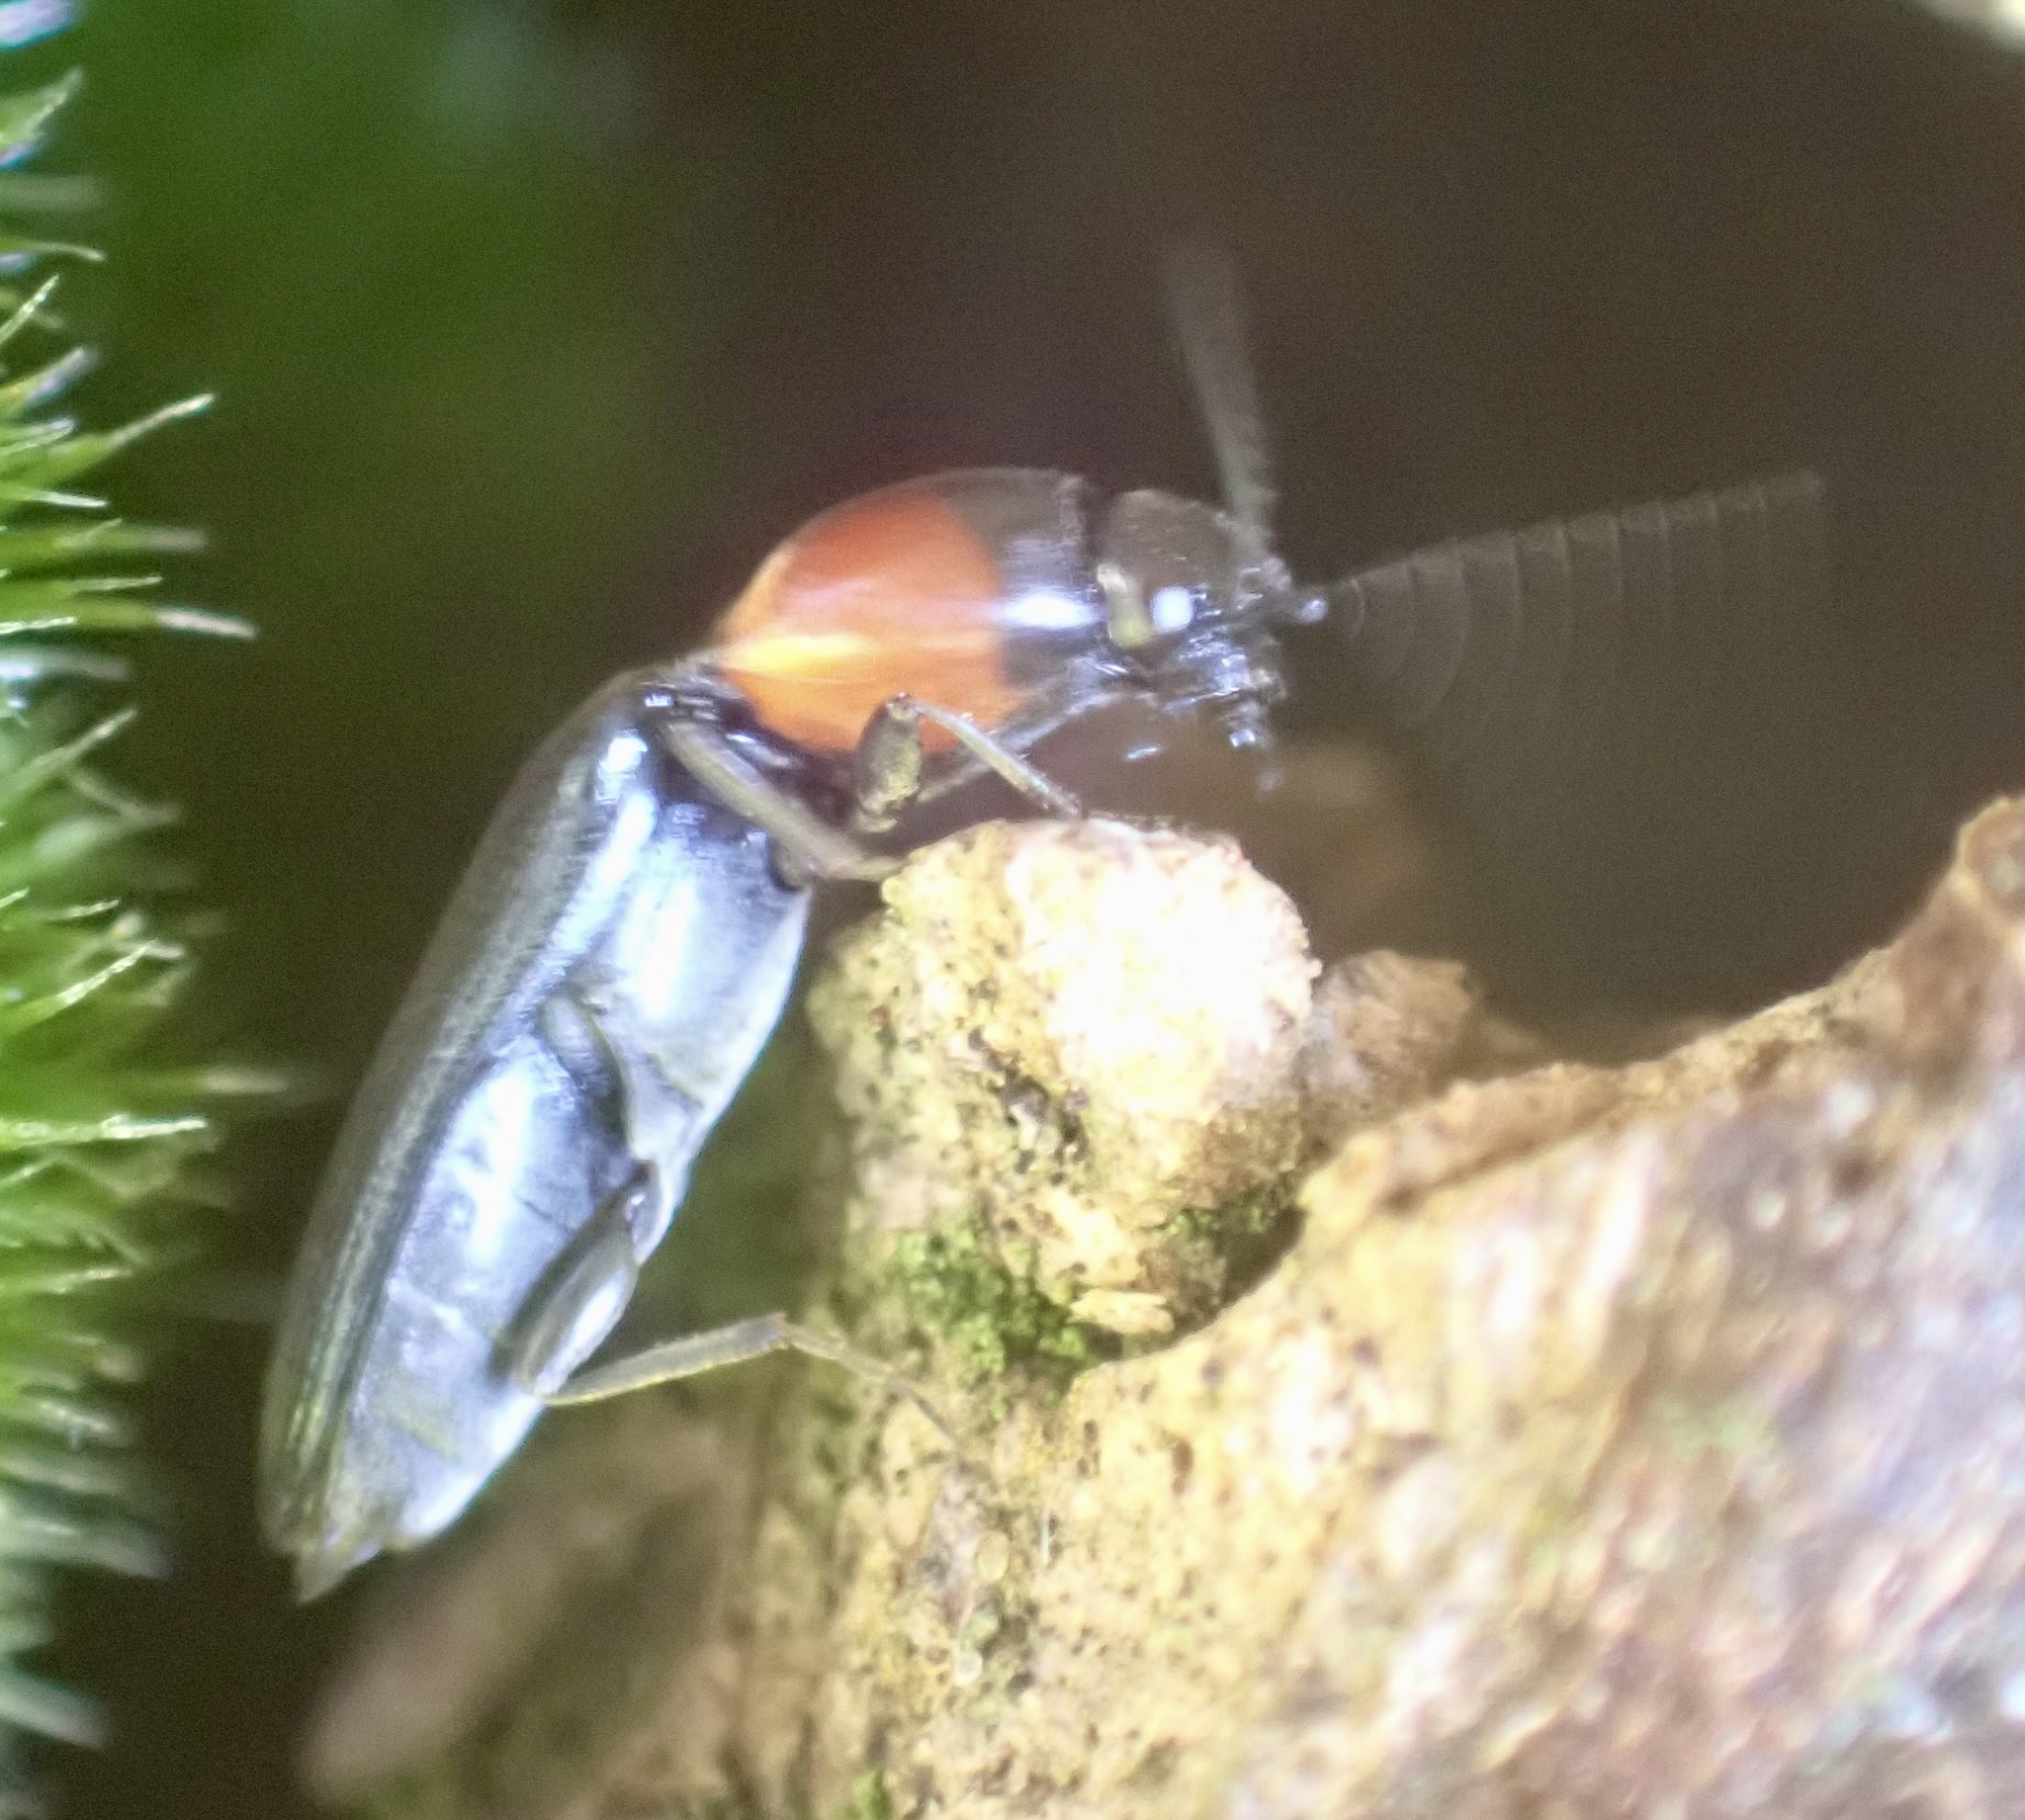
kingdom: Animalia
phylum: Arthropoda
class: Insecta
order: Coleoptera
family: Elateridae
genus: Cardiophorus
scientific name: Cardiophorus ruficollis
